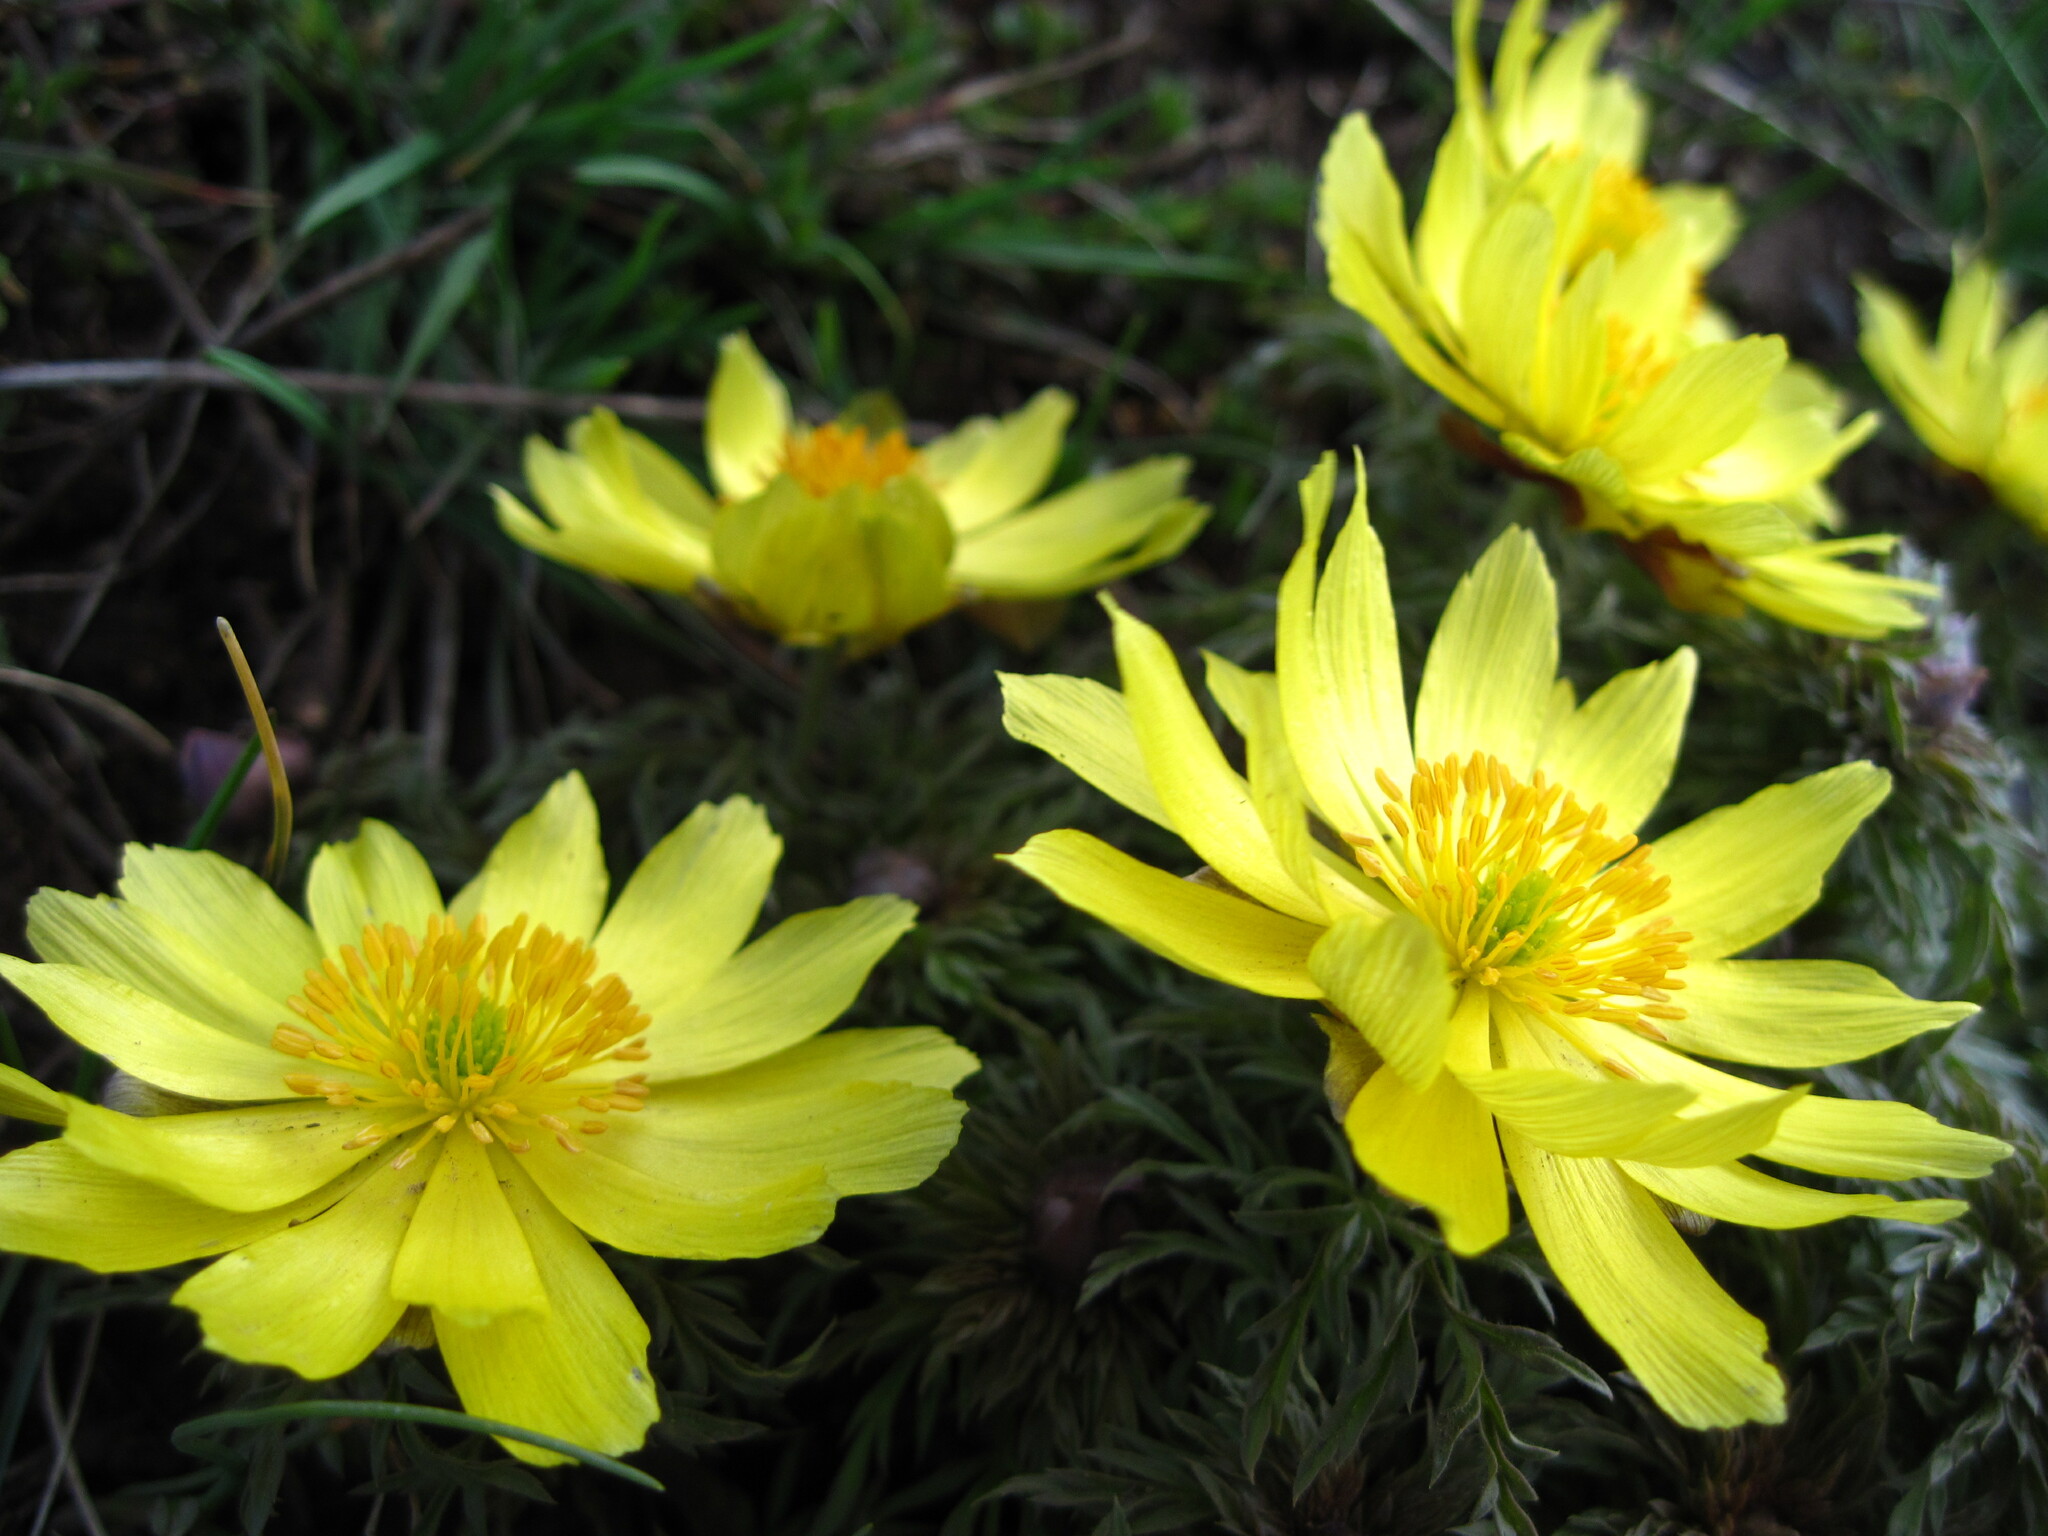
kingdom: Plantae
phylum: Tracheophyta
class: Magnoliopsida
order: Ranunculales
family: Ranunculaceae
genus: Adonis
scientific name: Adonis volgensis
